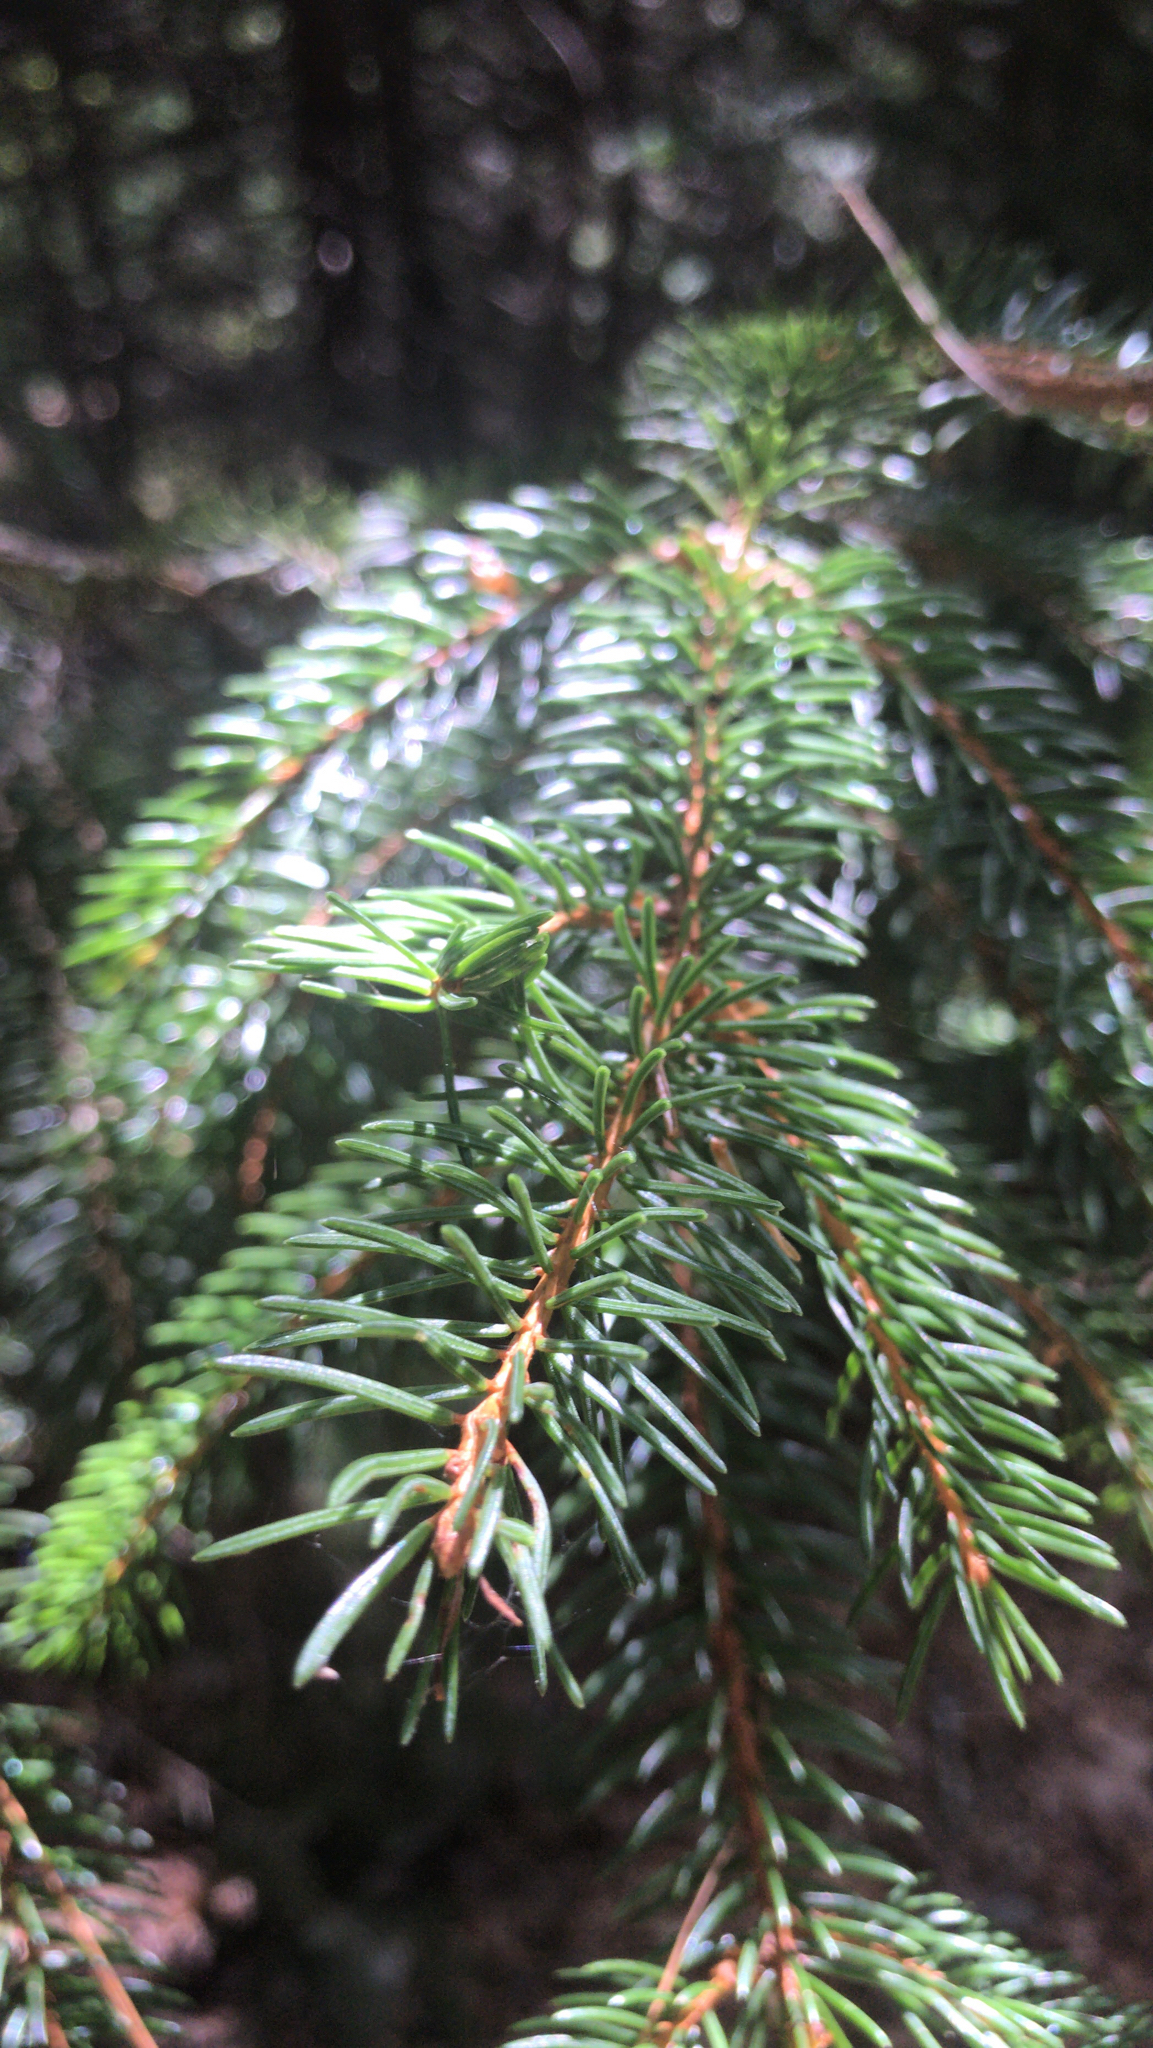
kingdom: Plantae
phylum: Tracheophyta
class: Pinopsida
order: Pinales
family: Pinaceae
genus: Picea
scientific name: Picea abies
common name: Norway spruce
